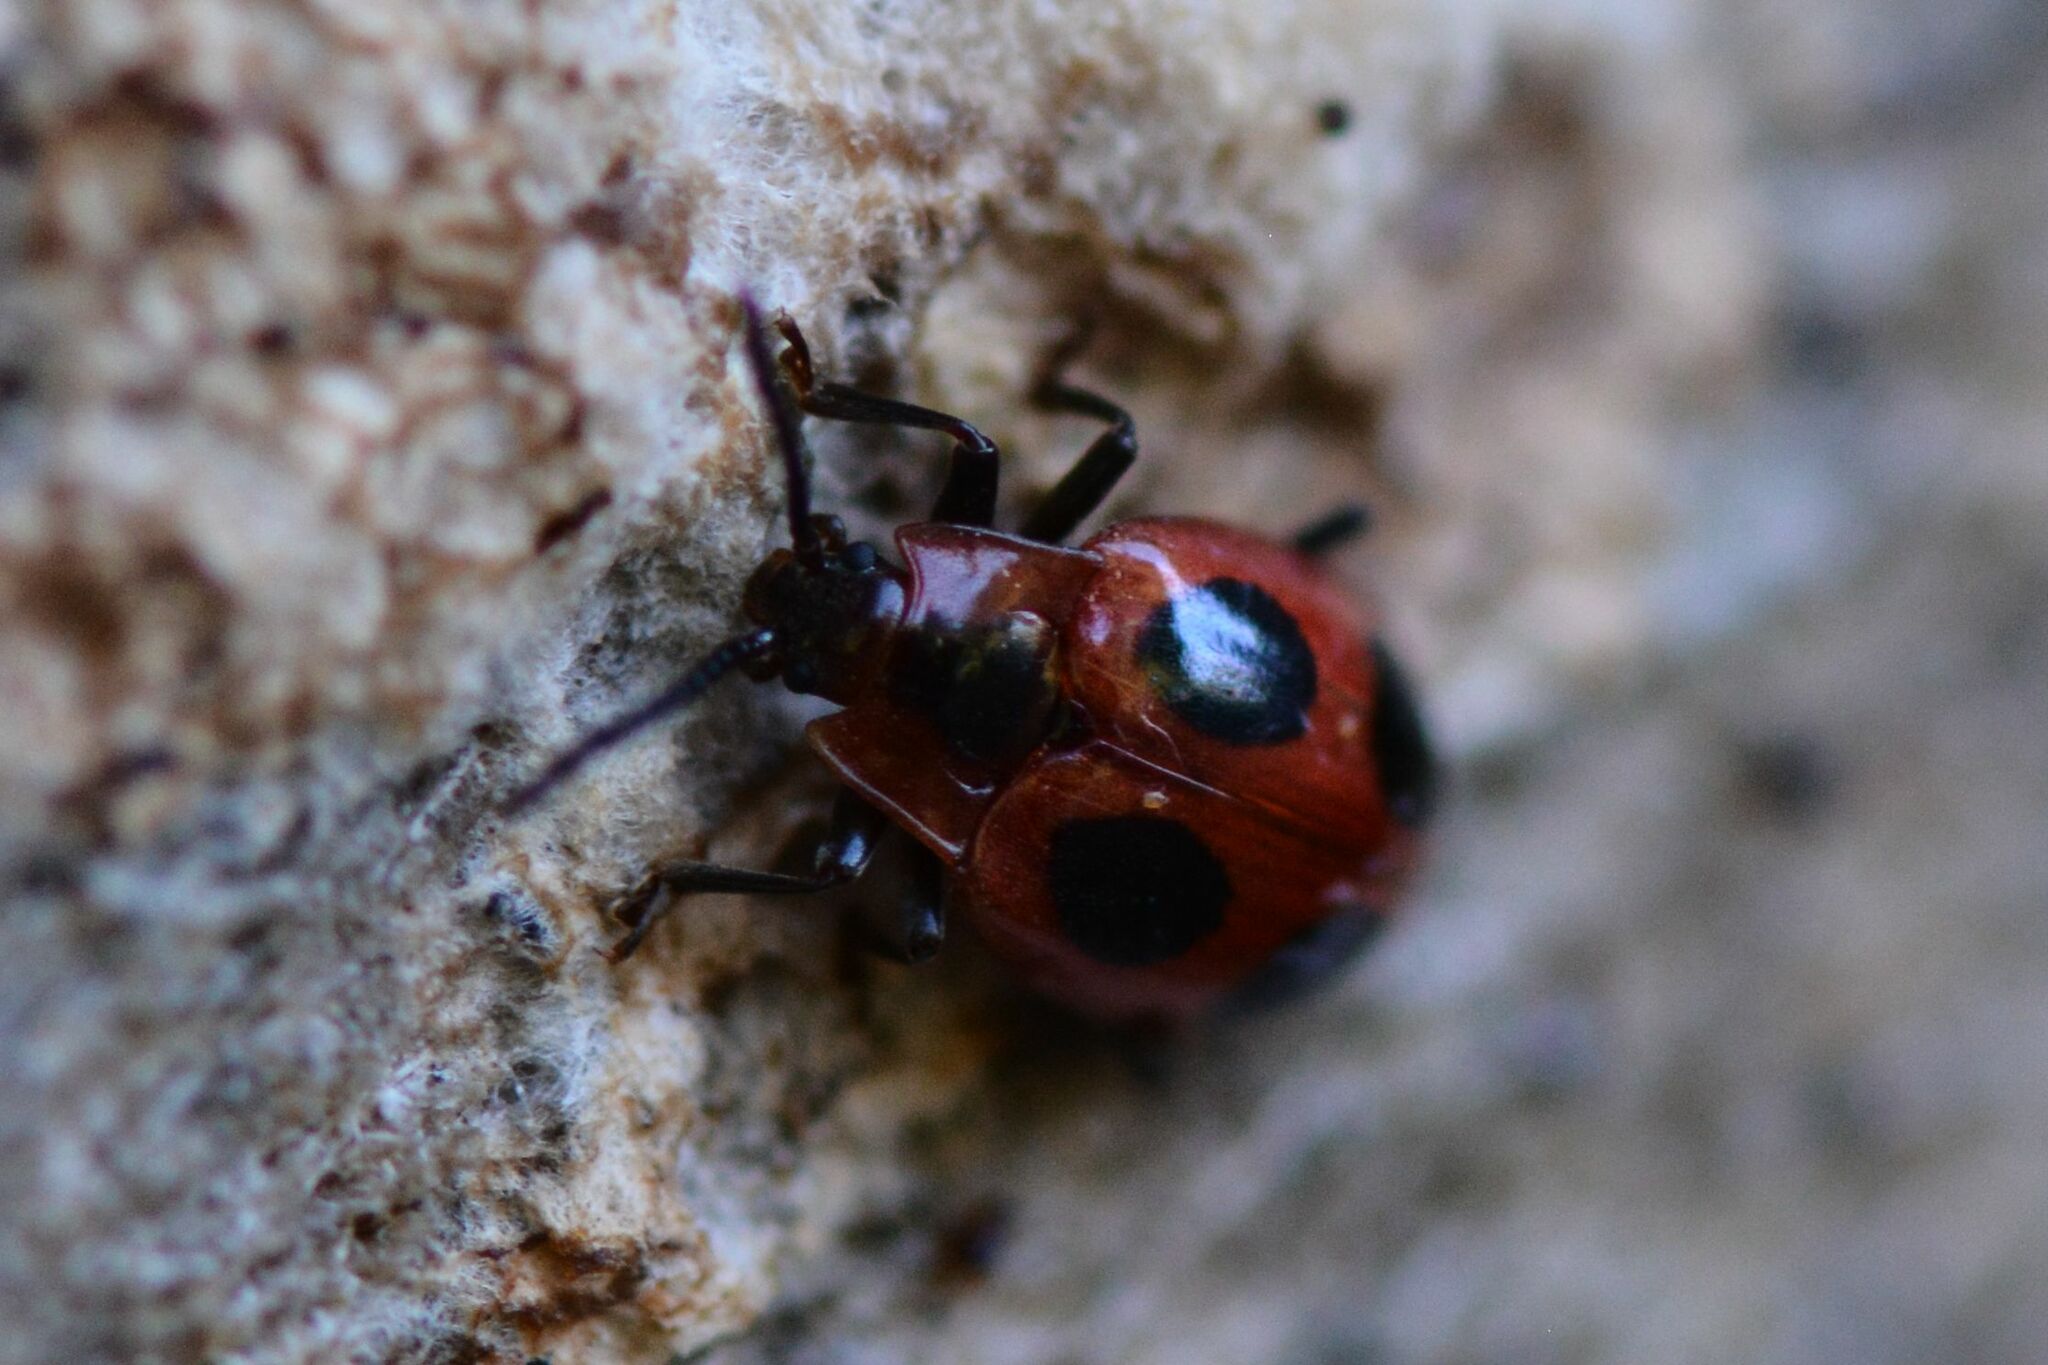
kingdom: Animalia
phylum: Arthropoda
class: Insecta
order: Coleoptera
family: Endomychidae
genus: Endomychus
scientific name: Endomychus coccineus
